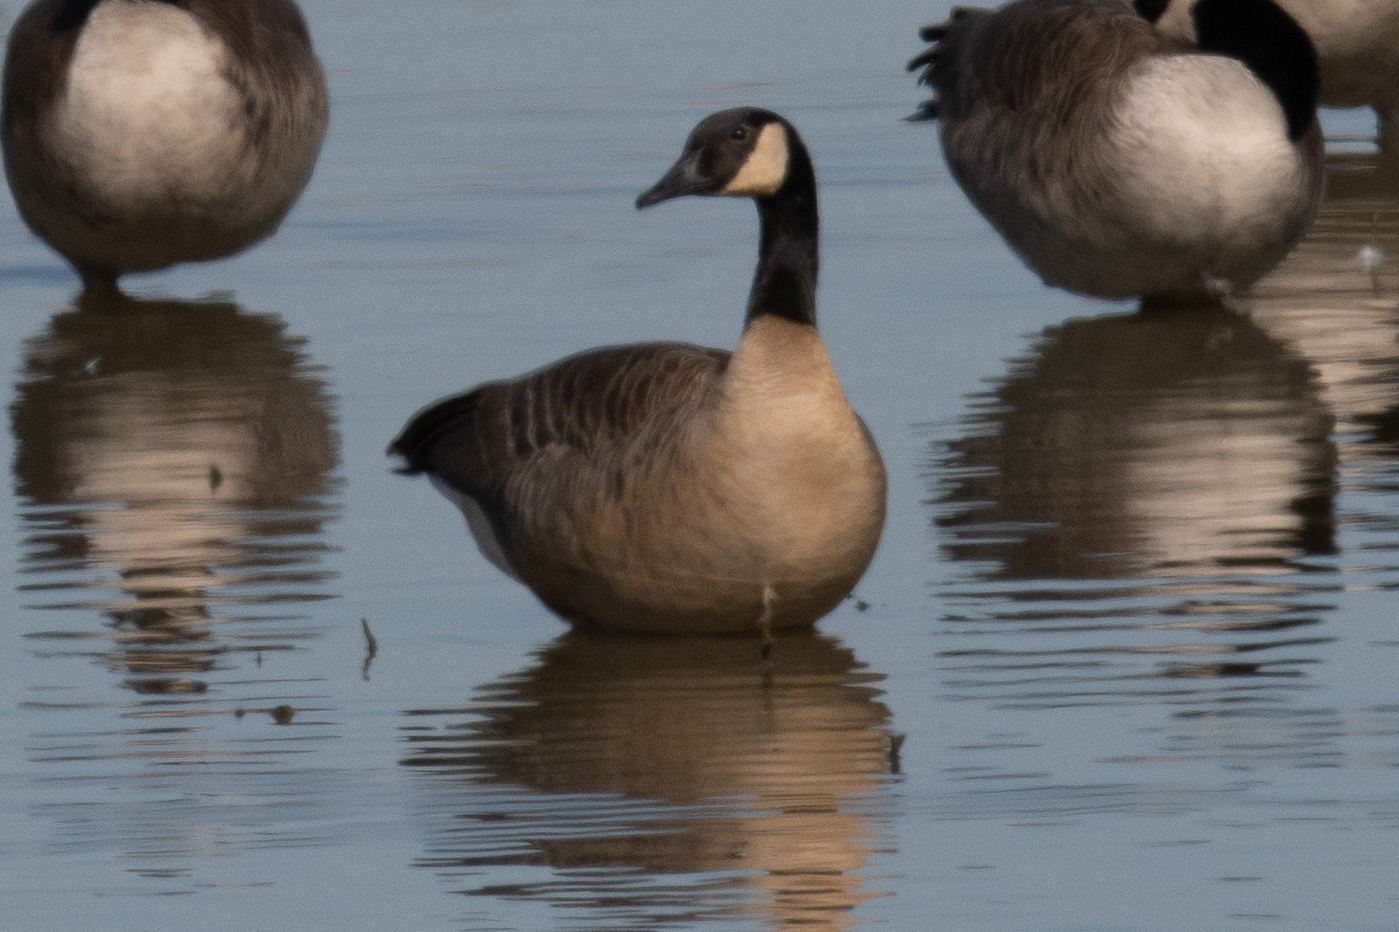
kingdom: Animalia
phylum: Chordata
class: Aves
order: Anseriformes
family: Anatidae
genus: Branta
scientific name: Branta canadensis
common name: Canada goose
